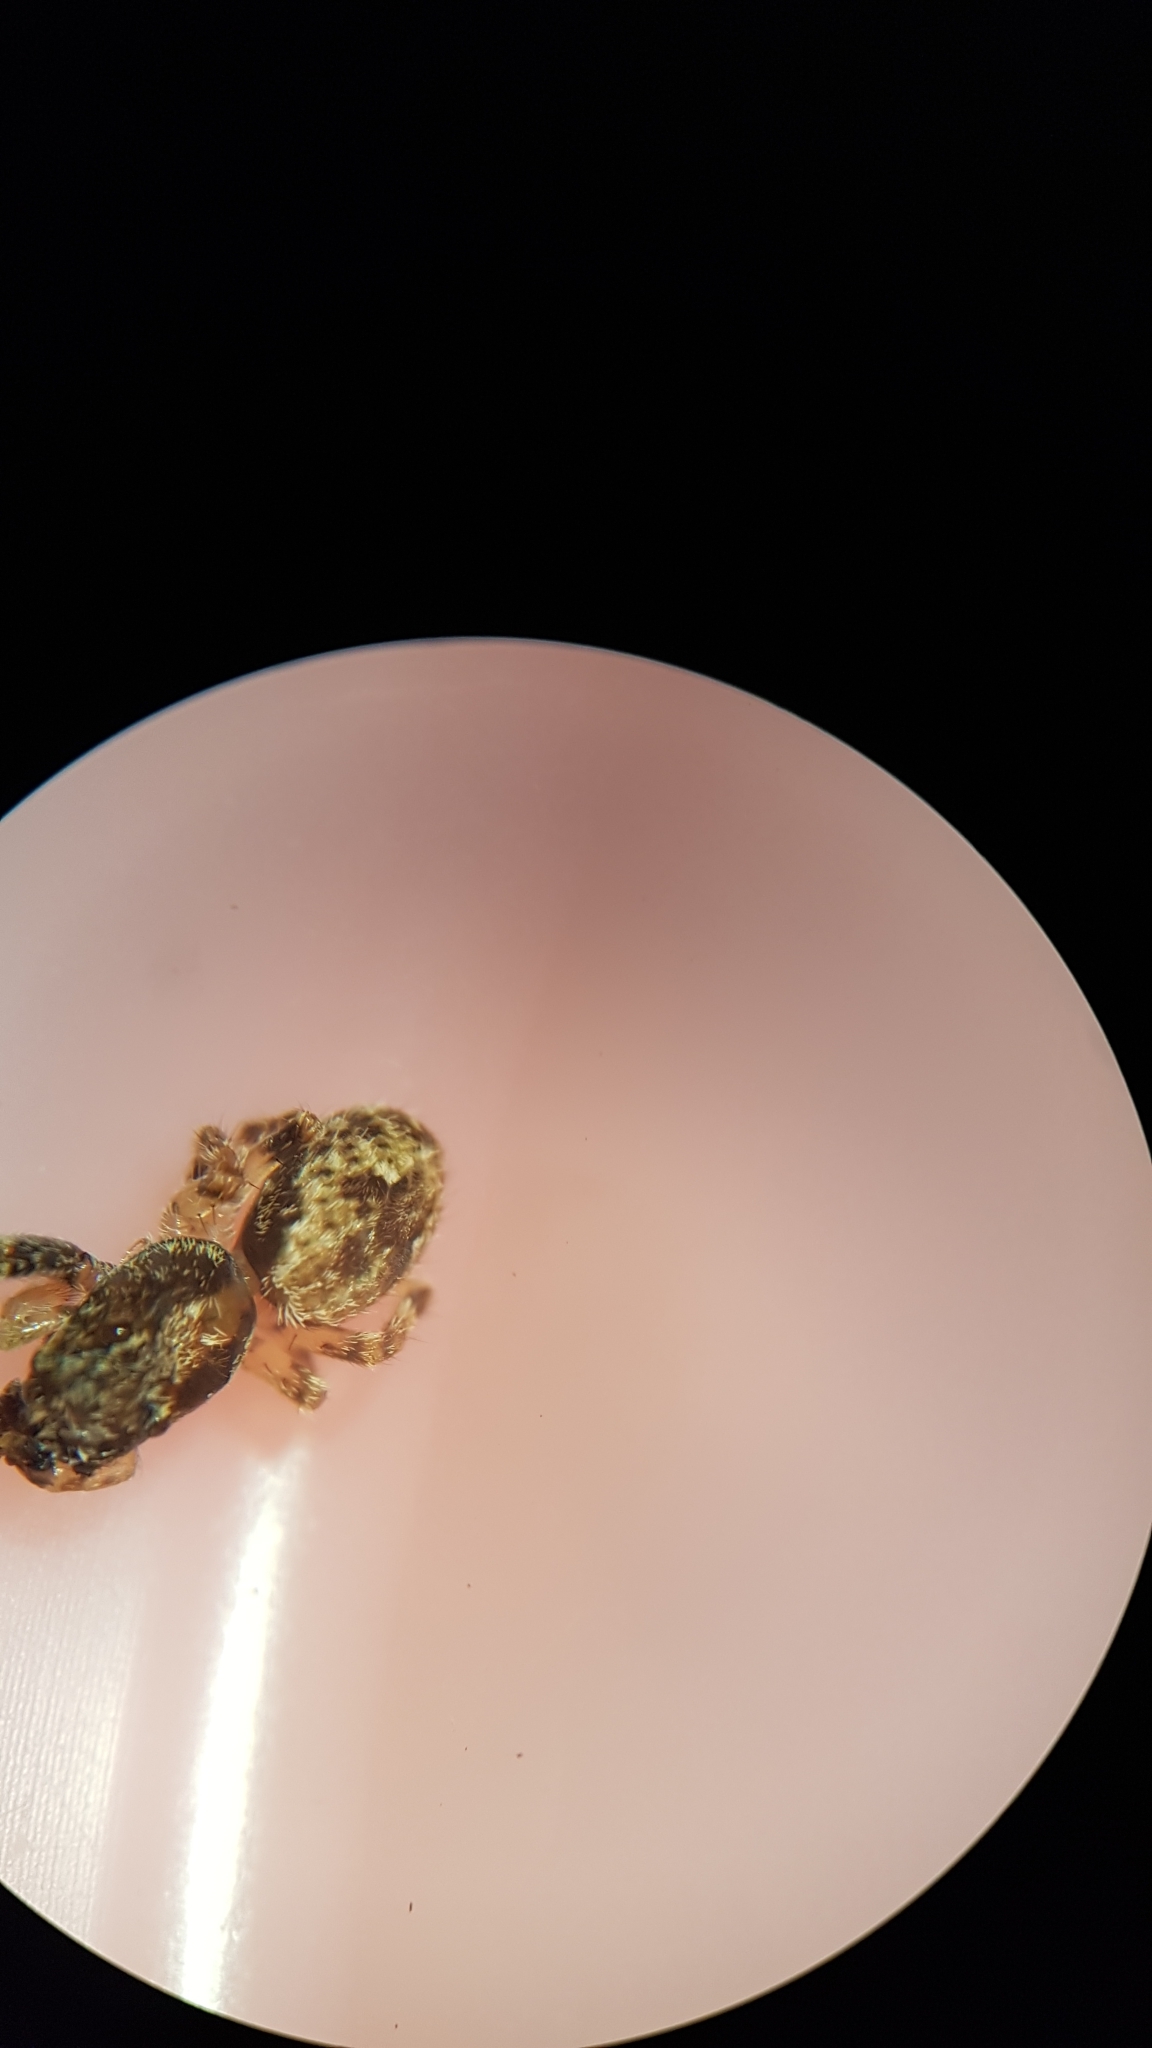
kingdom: Animalia
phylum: Arthropoda
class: Arachnida
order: Araneae
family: Salticidae
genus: Hinewaia
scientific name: Hinewaia embolica
